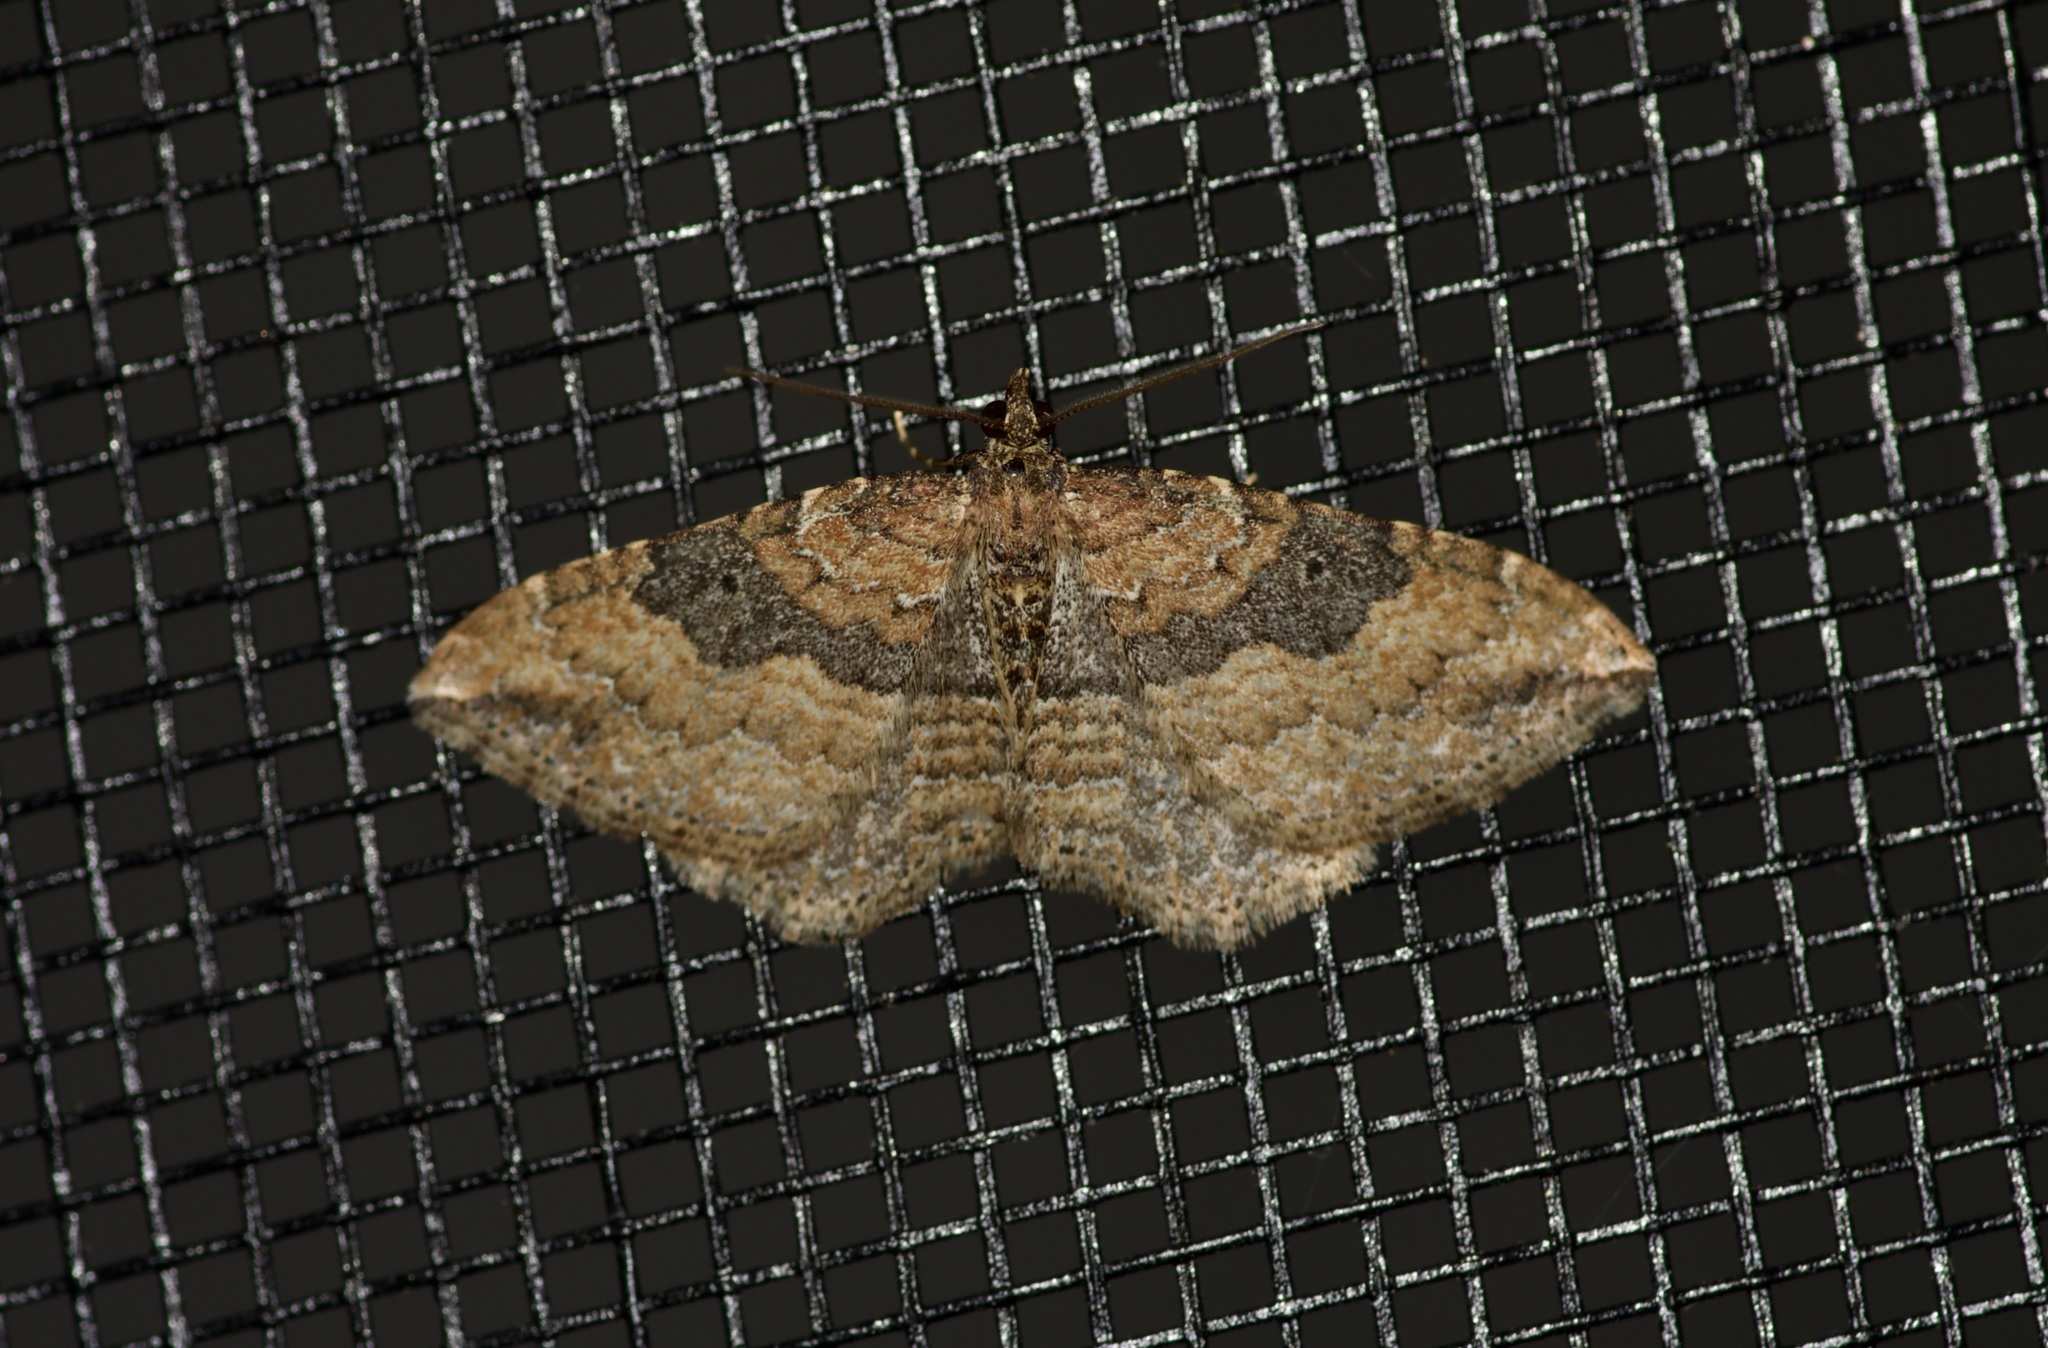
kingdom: Animalia
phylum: Arthropoda
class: Insecta
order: Lepidoptera
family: Geometridae
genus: Orthonama
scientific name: Orthonama obstipata
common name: The gem
